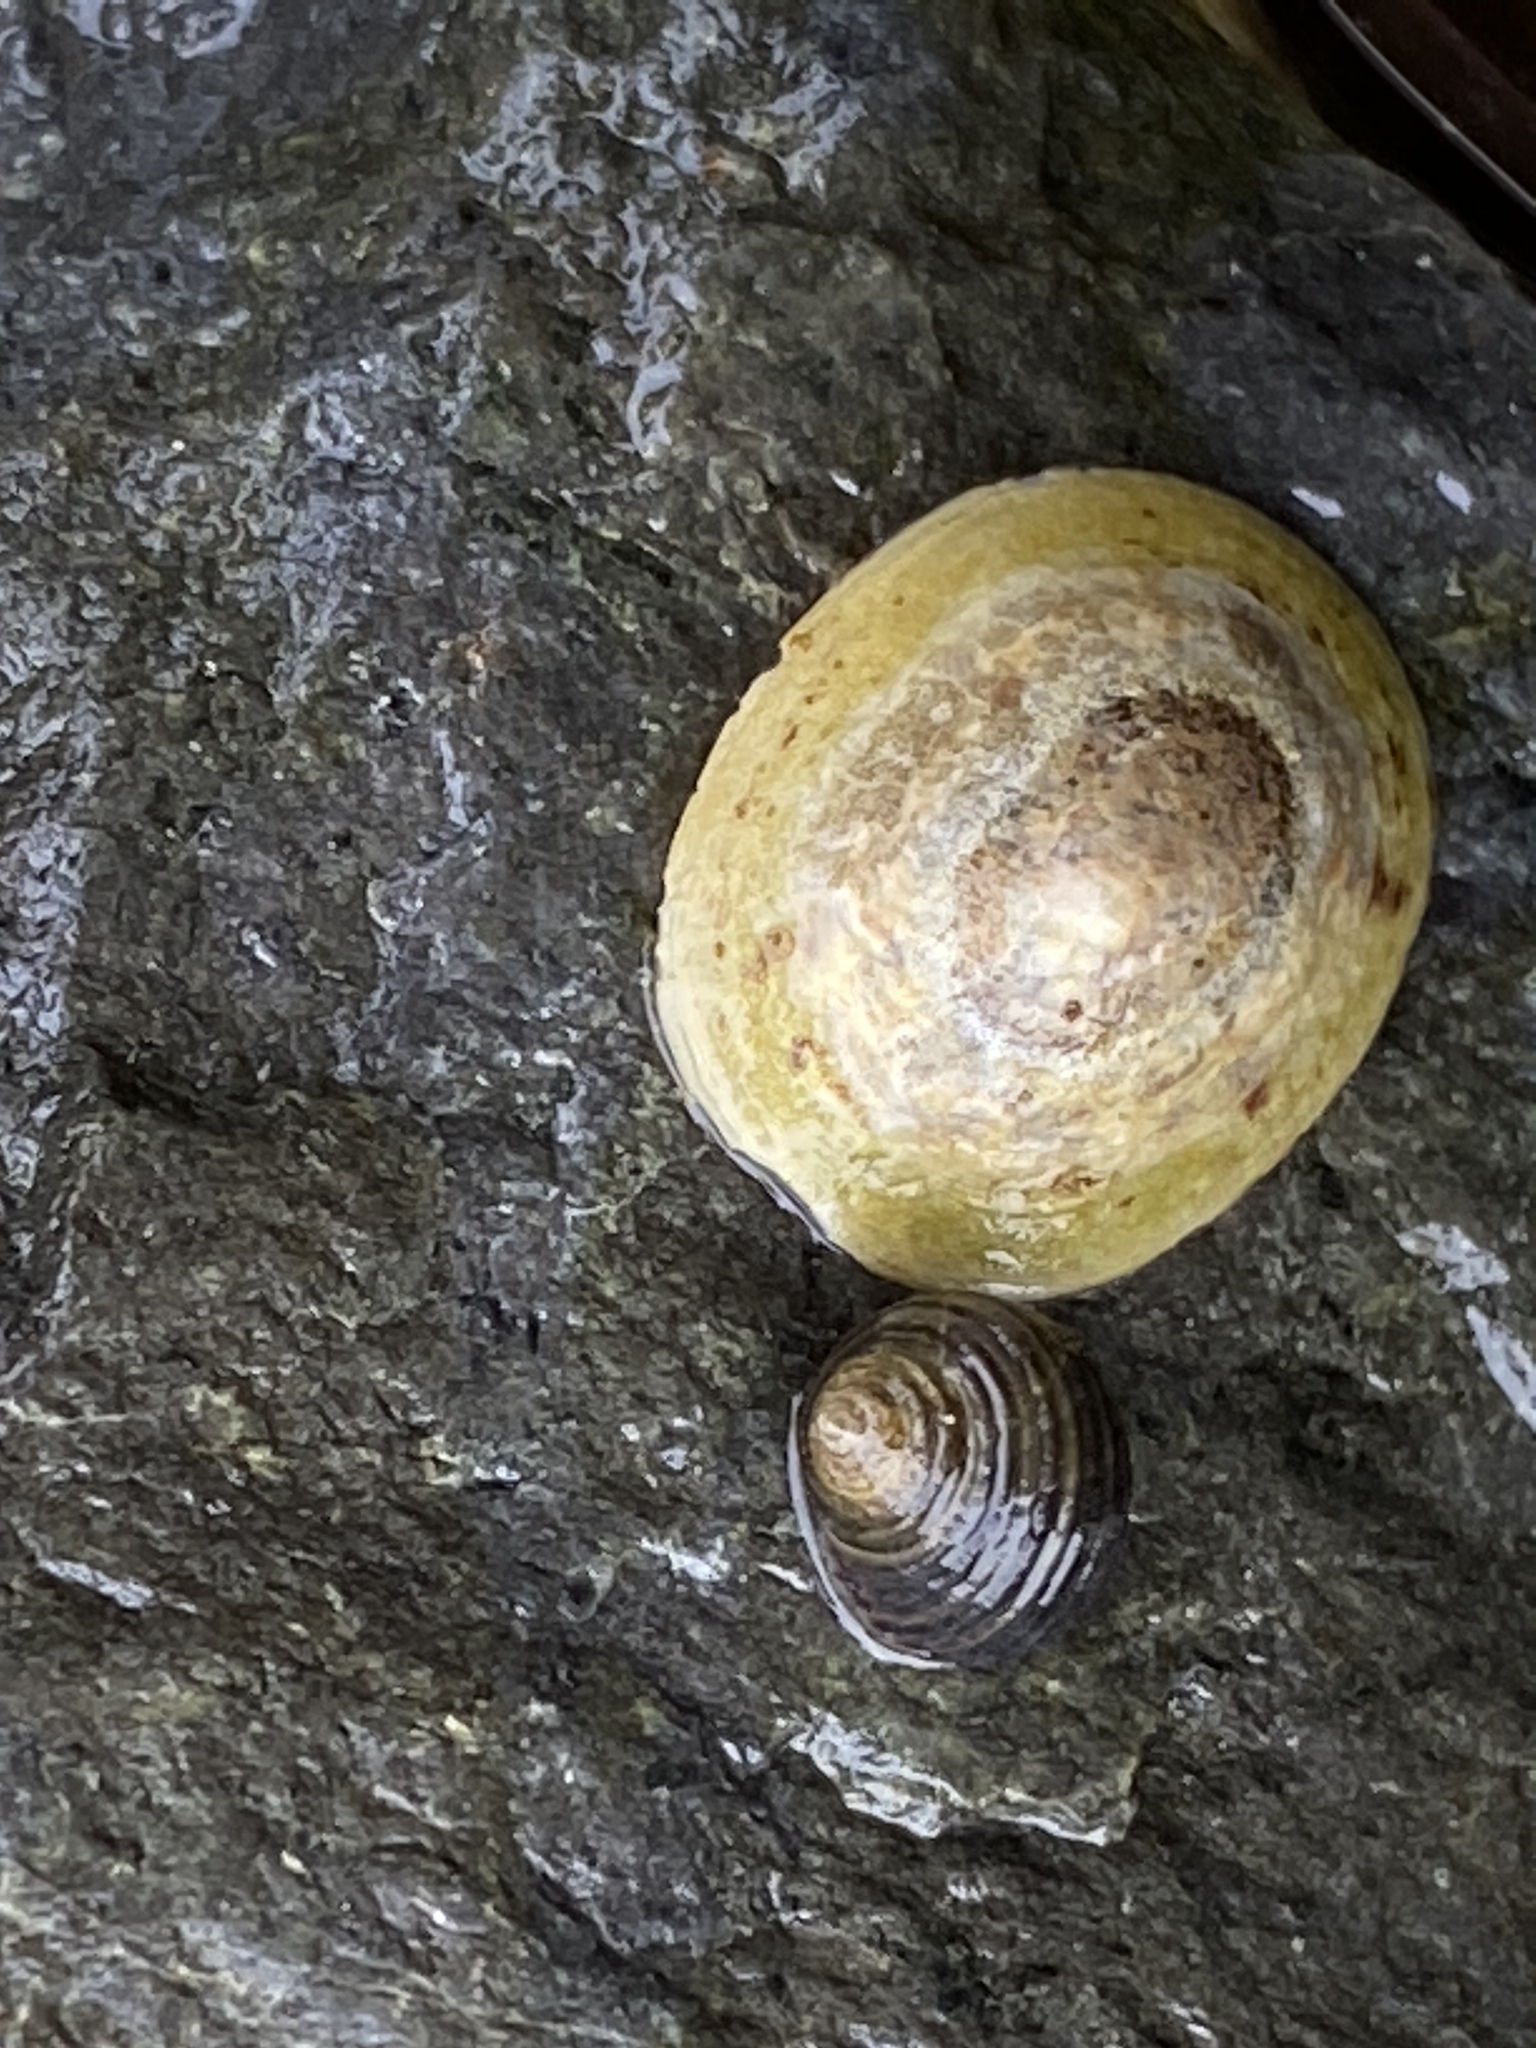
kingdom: Animalia
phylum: Mollusca
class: Gastropoda
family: Lottiidae
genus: Testudinalia
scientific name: Testudinalia testudinalis
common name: Common tortoiseshell limpet
